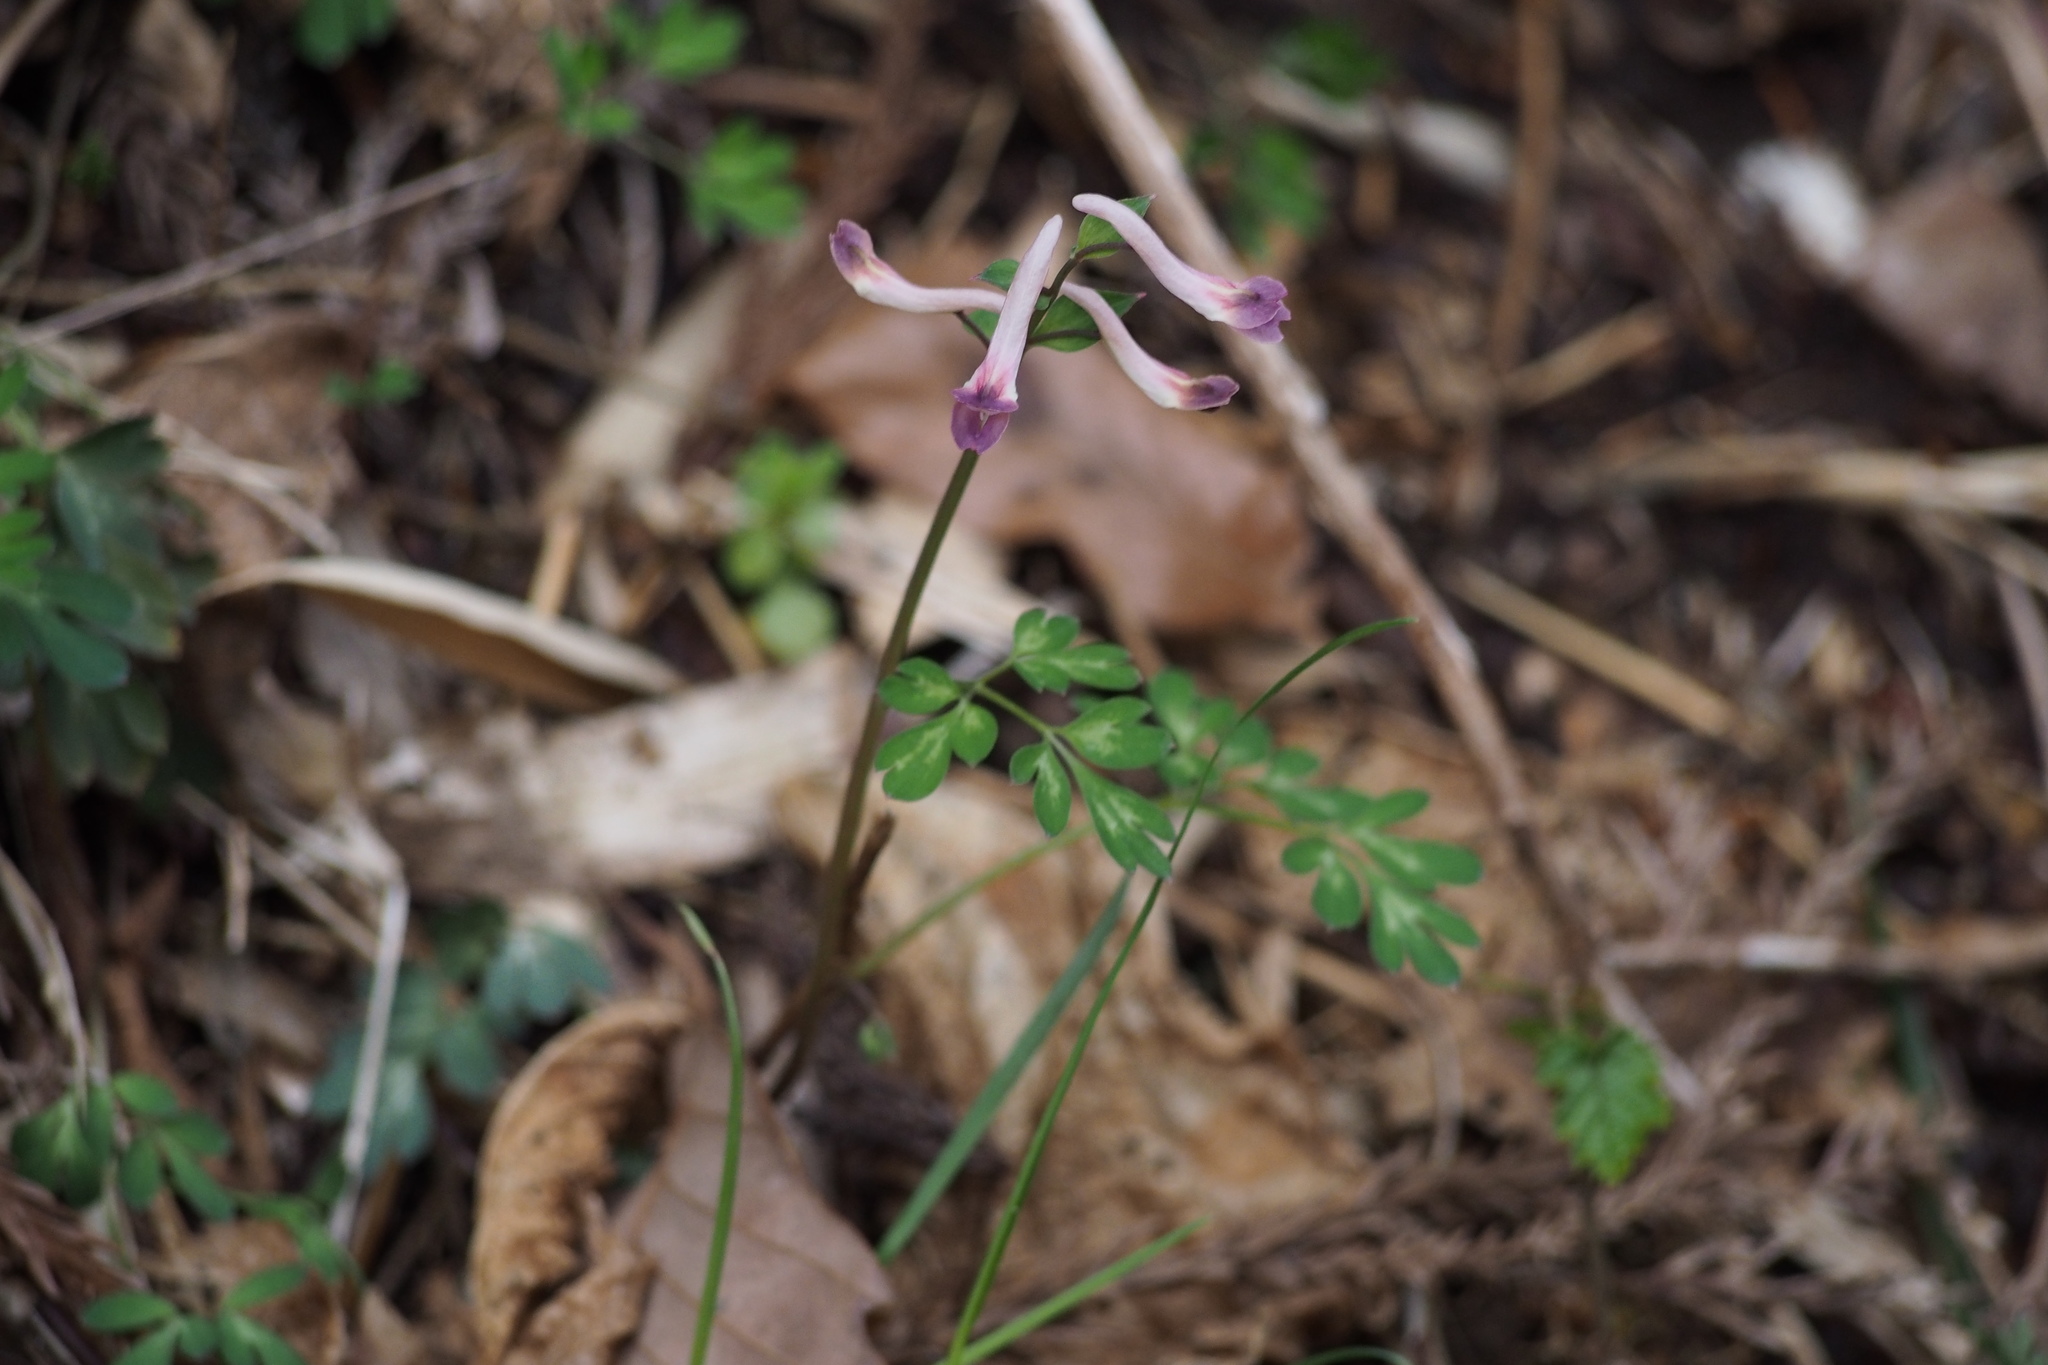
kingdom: Plantae
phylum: Tracheophyta
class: Magnoliopsida
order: Ranunculales
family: Papaveraceae
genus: Corydalis
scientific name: Corydalis decumbens
